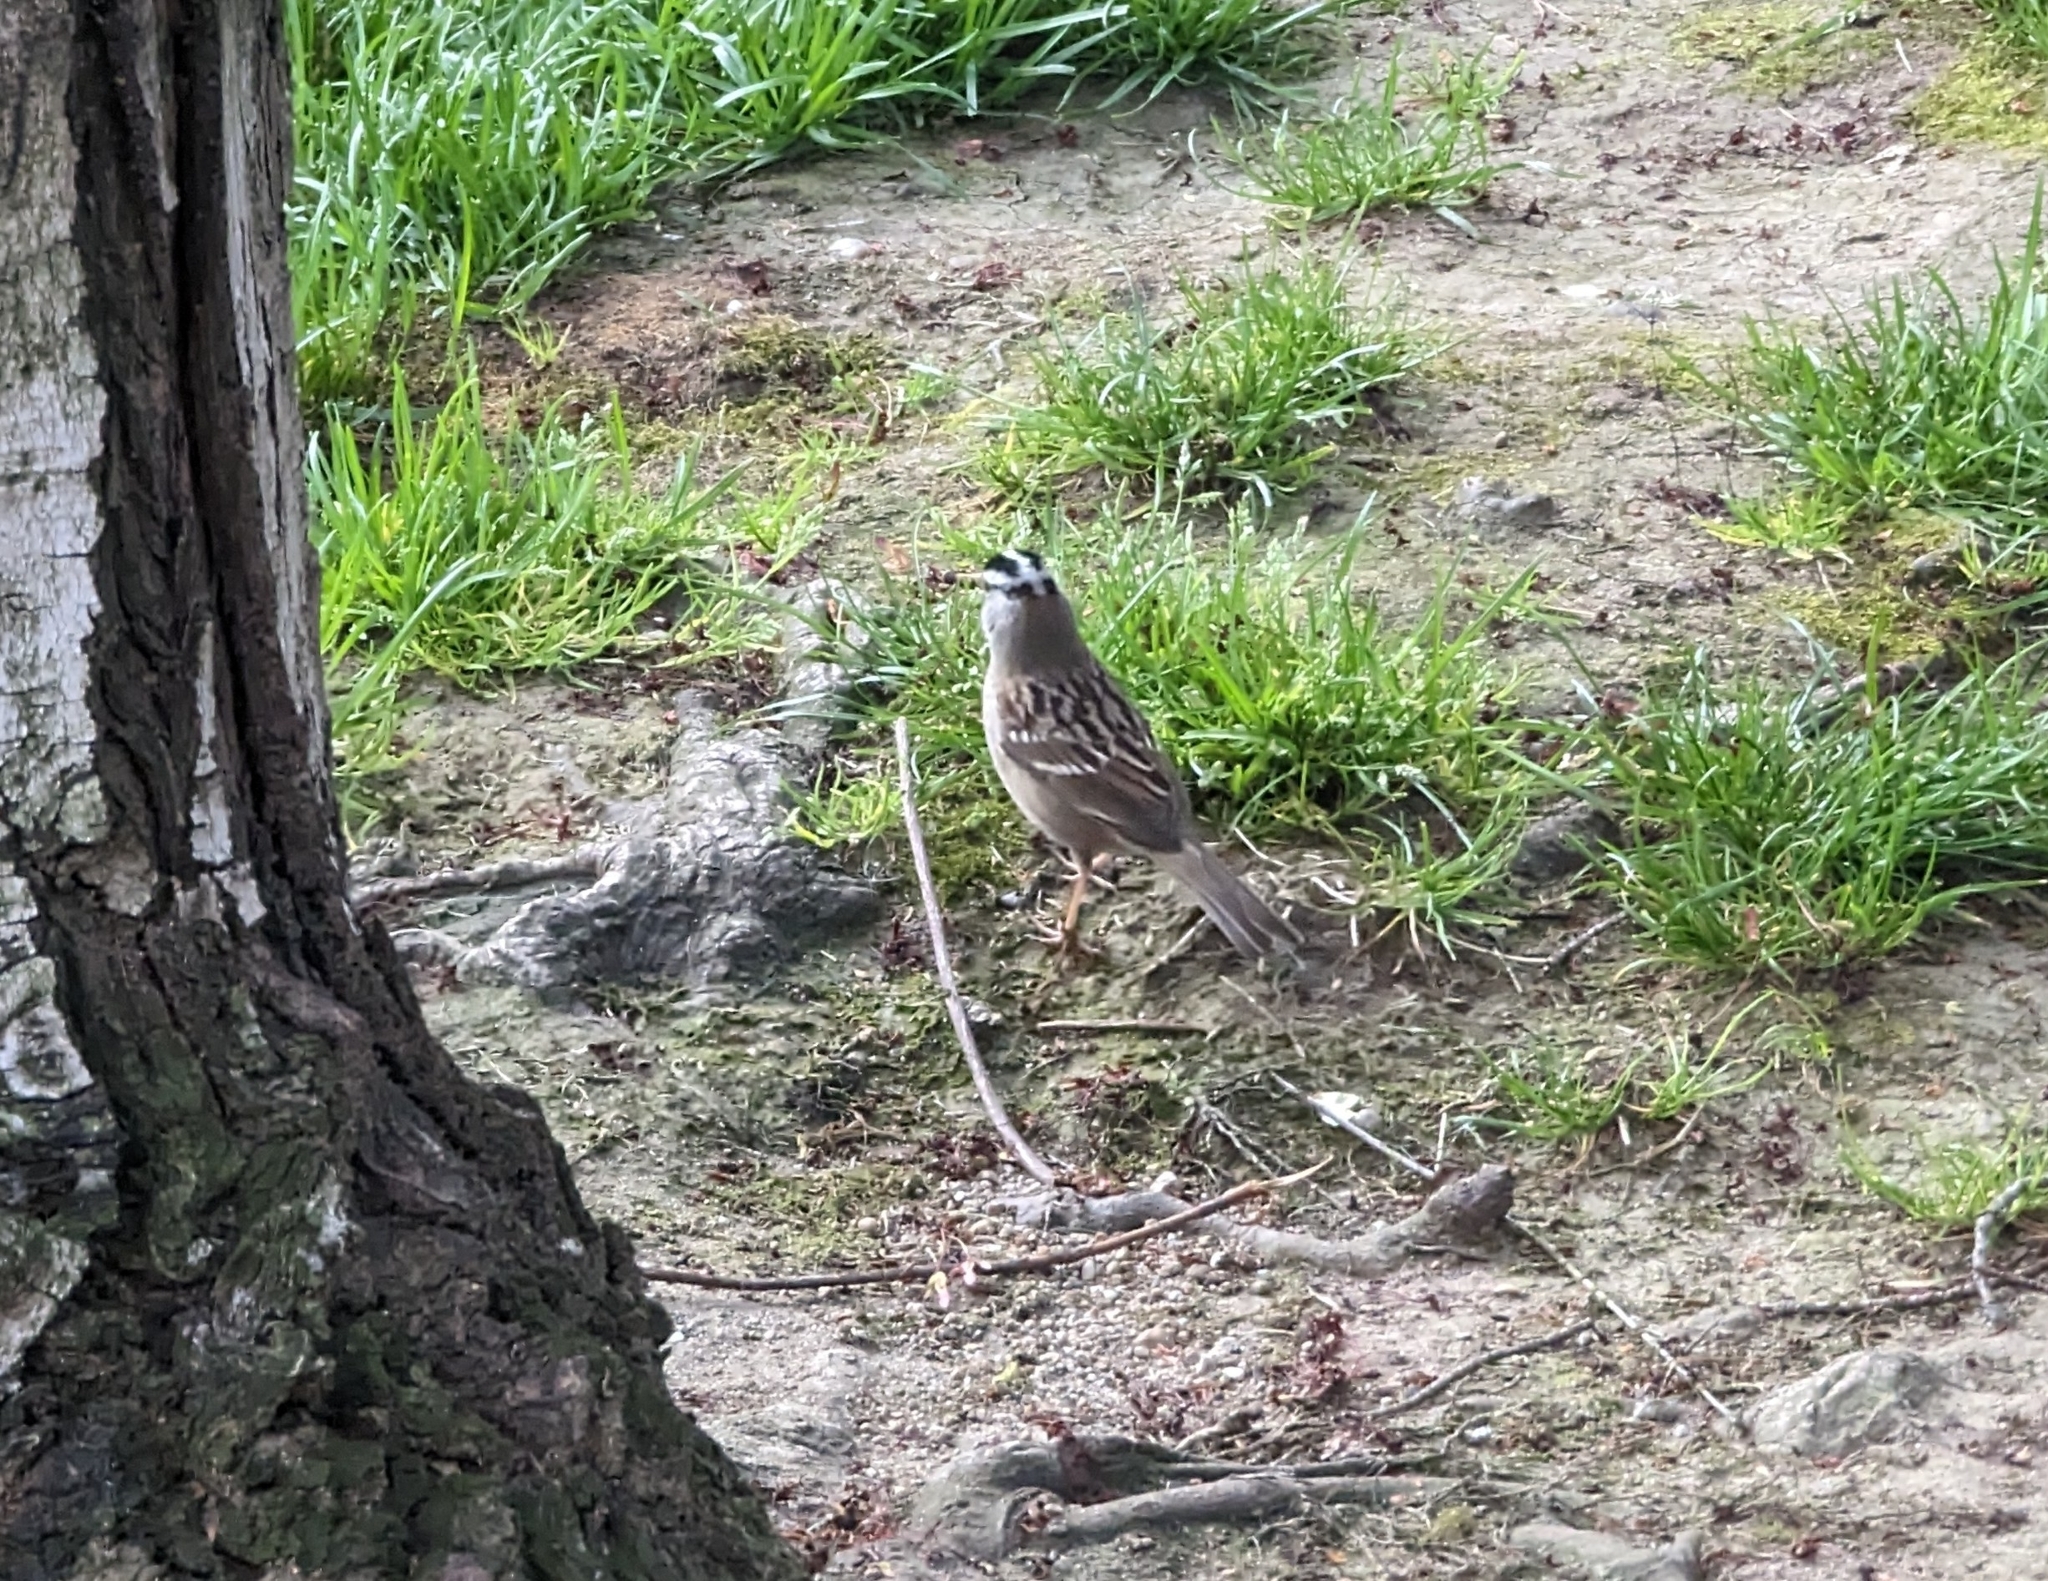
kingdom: Animalia
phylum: Chordata
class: Aves
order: Passeriformes
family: Passerellidae
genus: Zonotrichia
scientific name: Zonotrichia leucophrys
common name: White-crowned sparrow
